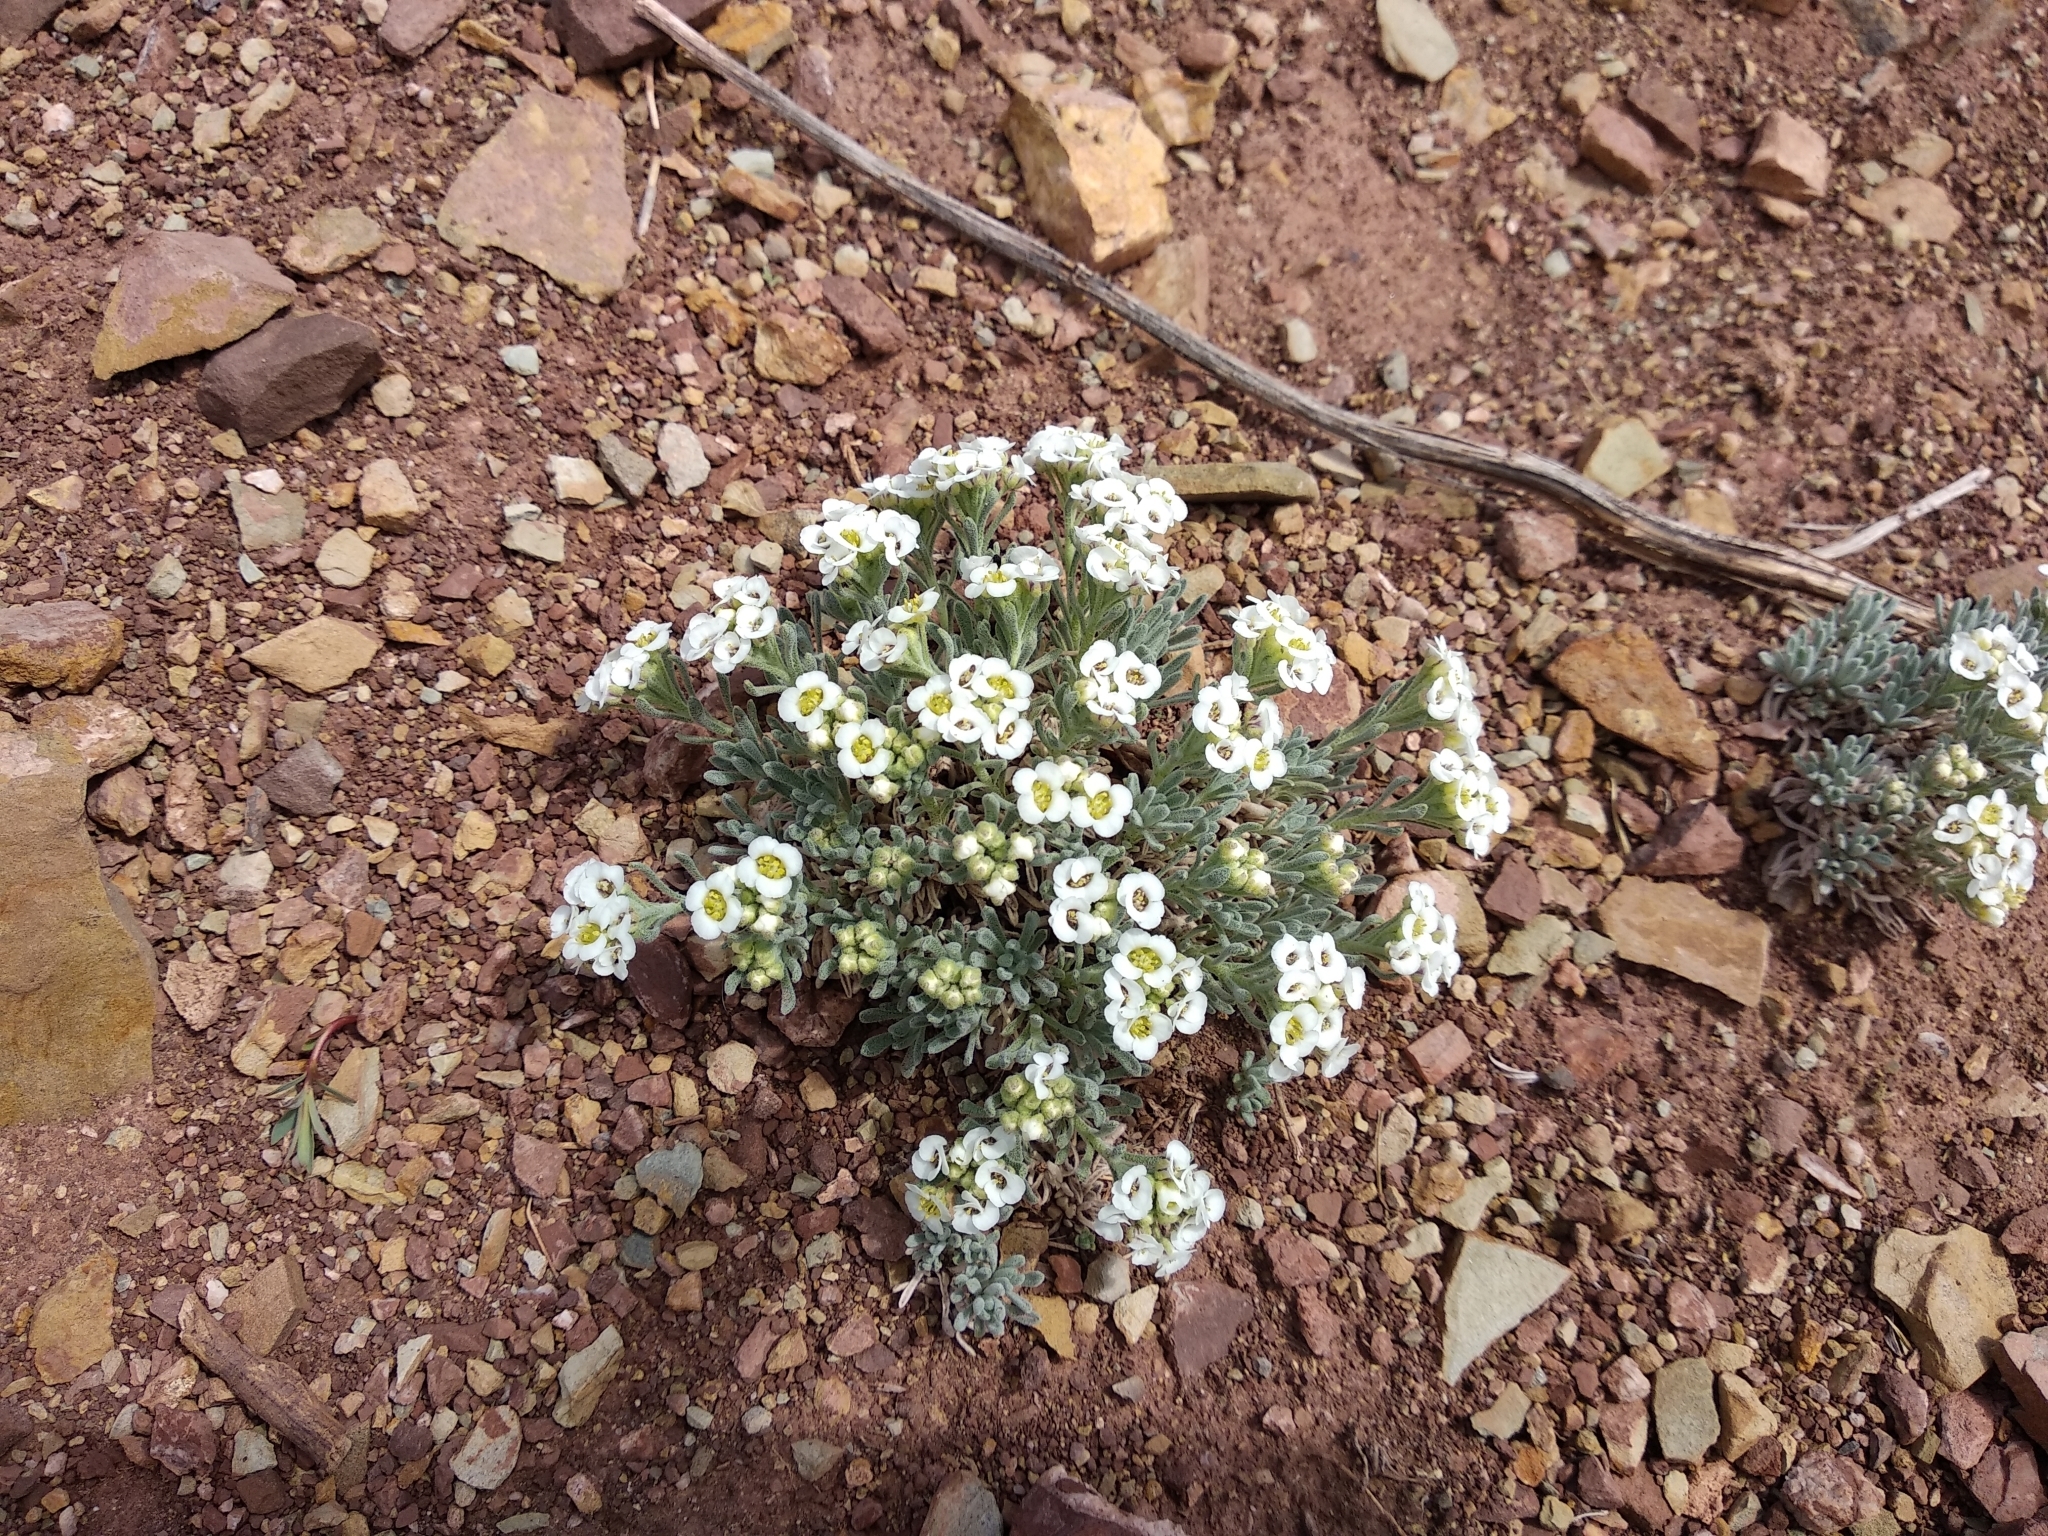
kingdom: Plantae
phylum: Tracheophyta
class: Magnoliopsida
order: Brassicales
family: Brassicaceae
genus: Stevenia
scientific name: Stevenia canescens
